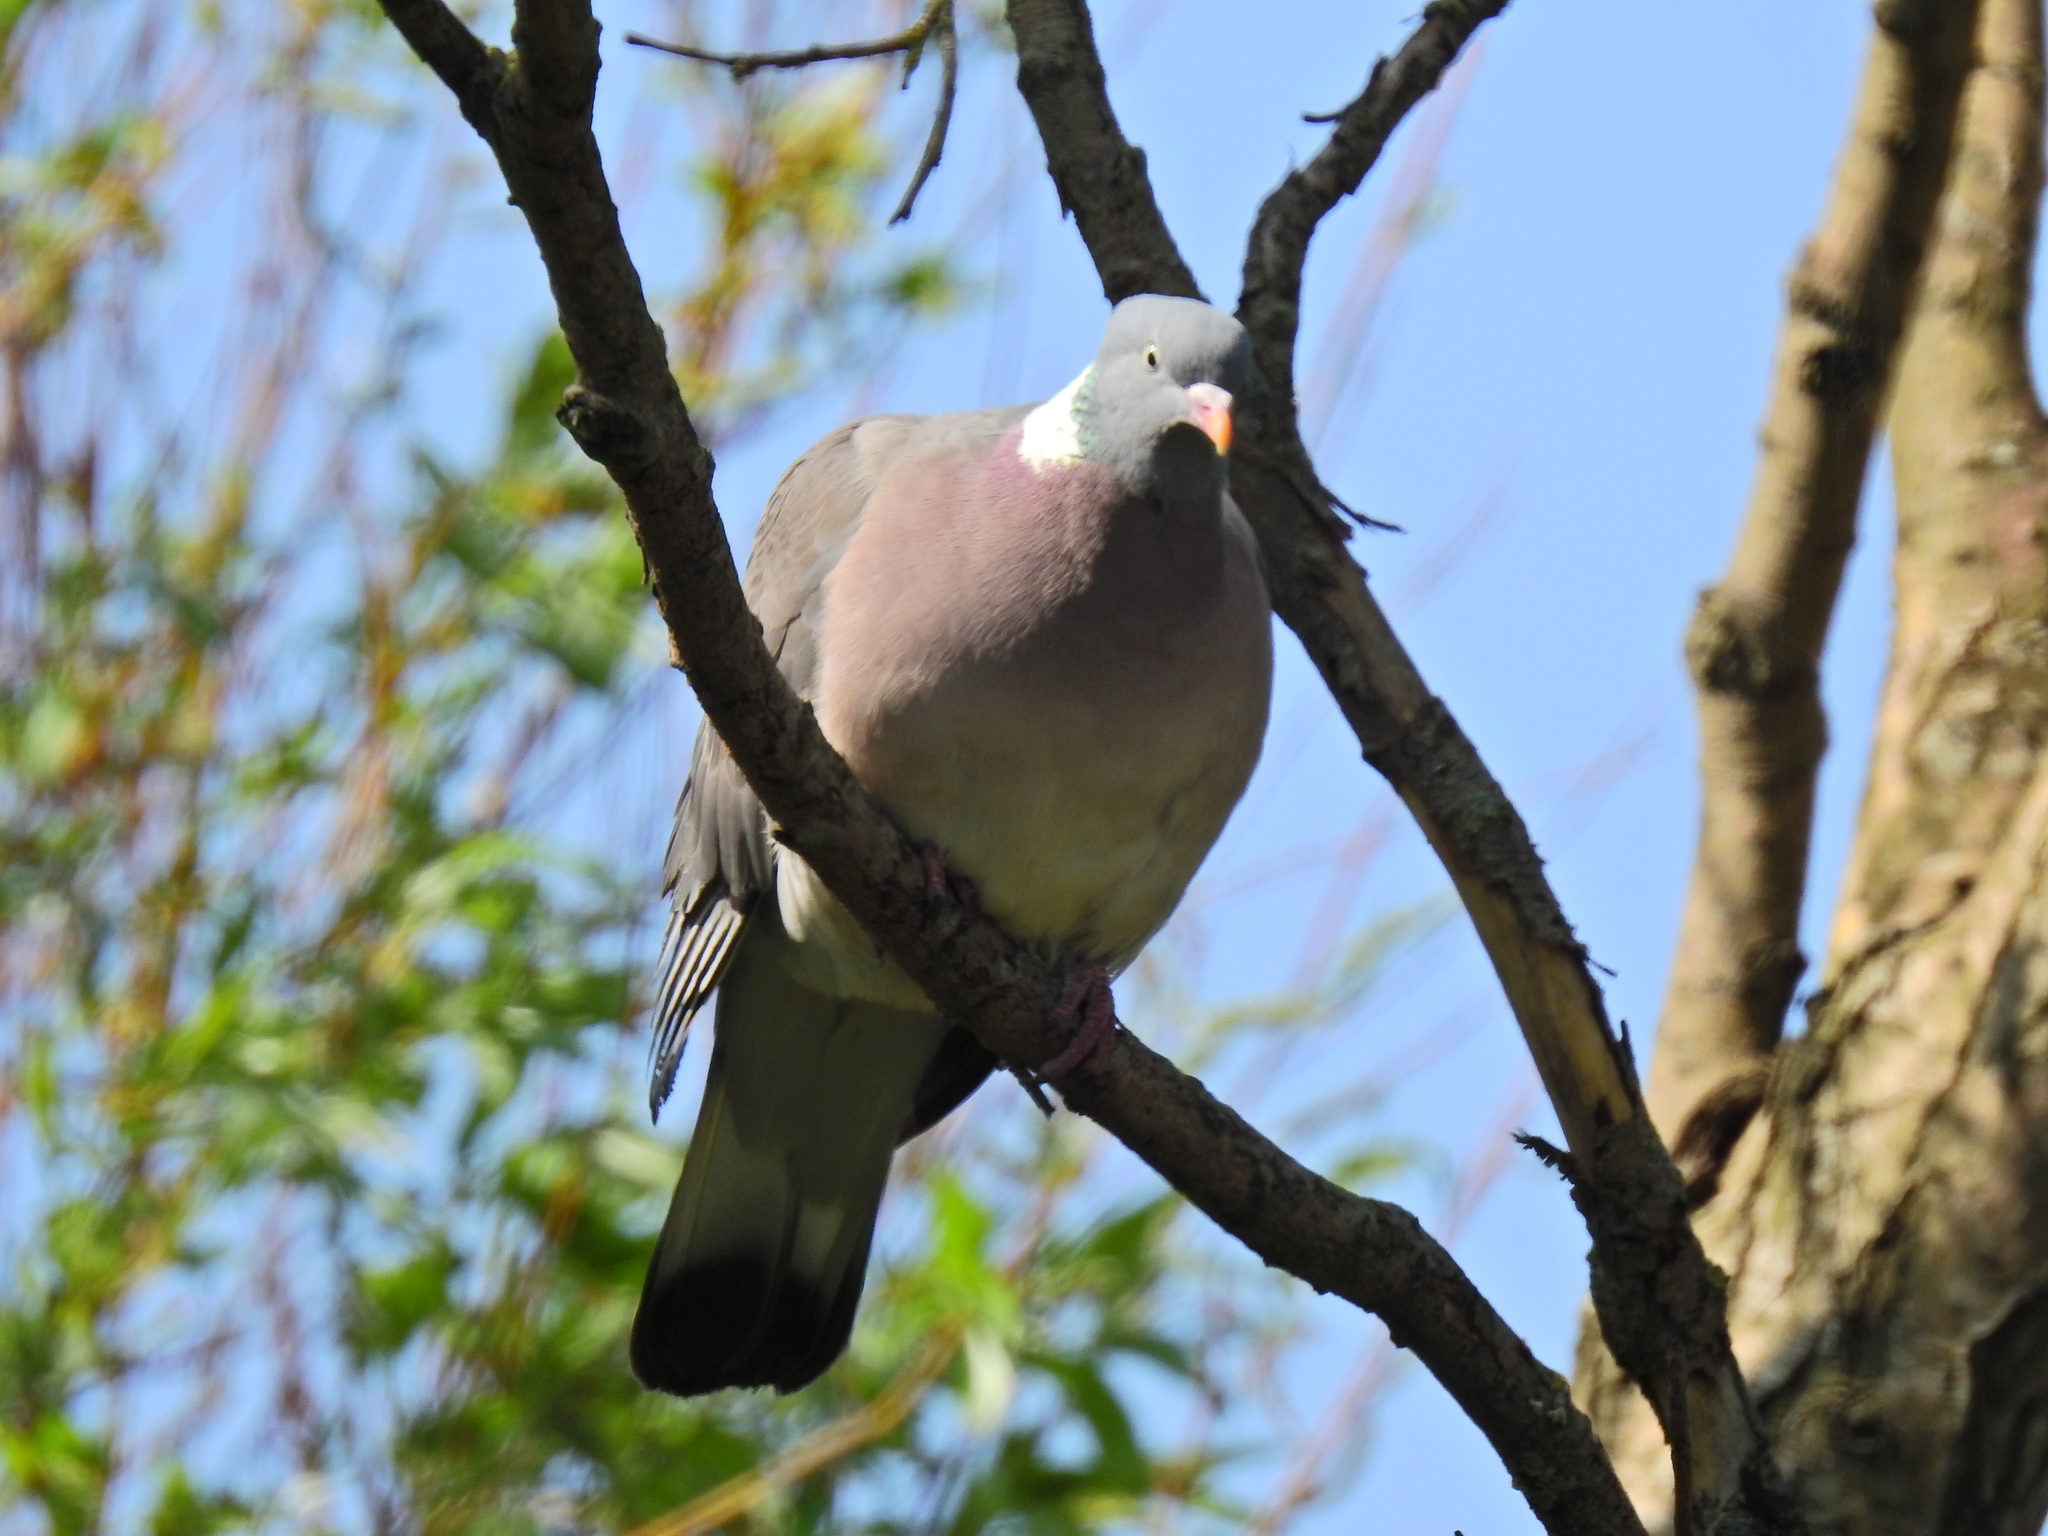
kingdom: Animalia
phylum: Chordata
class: Aves
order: Columbiformes
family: Columbidae
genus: Columba
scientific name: Columba palumbus
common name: Common wood pigeon
